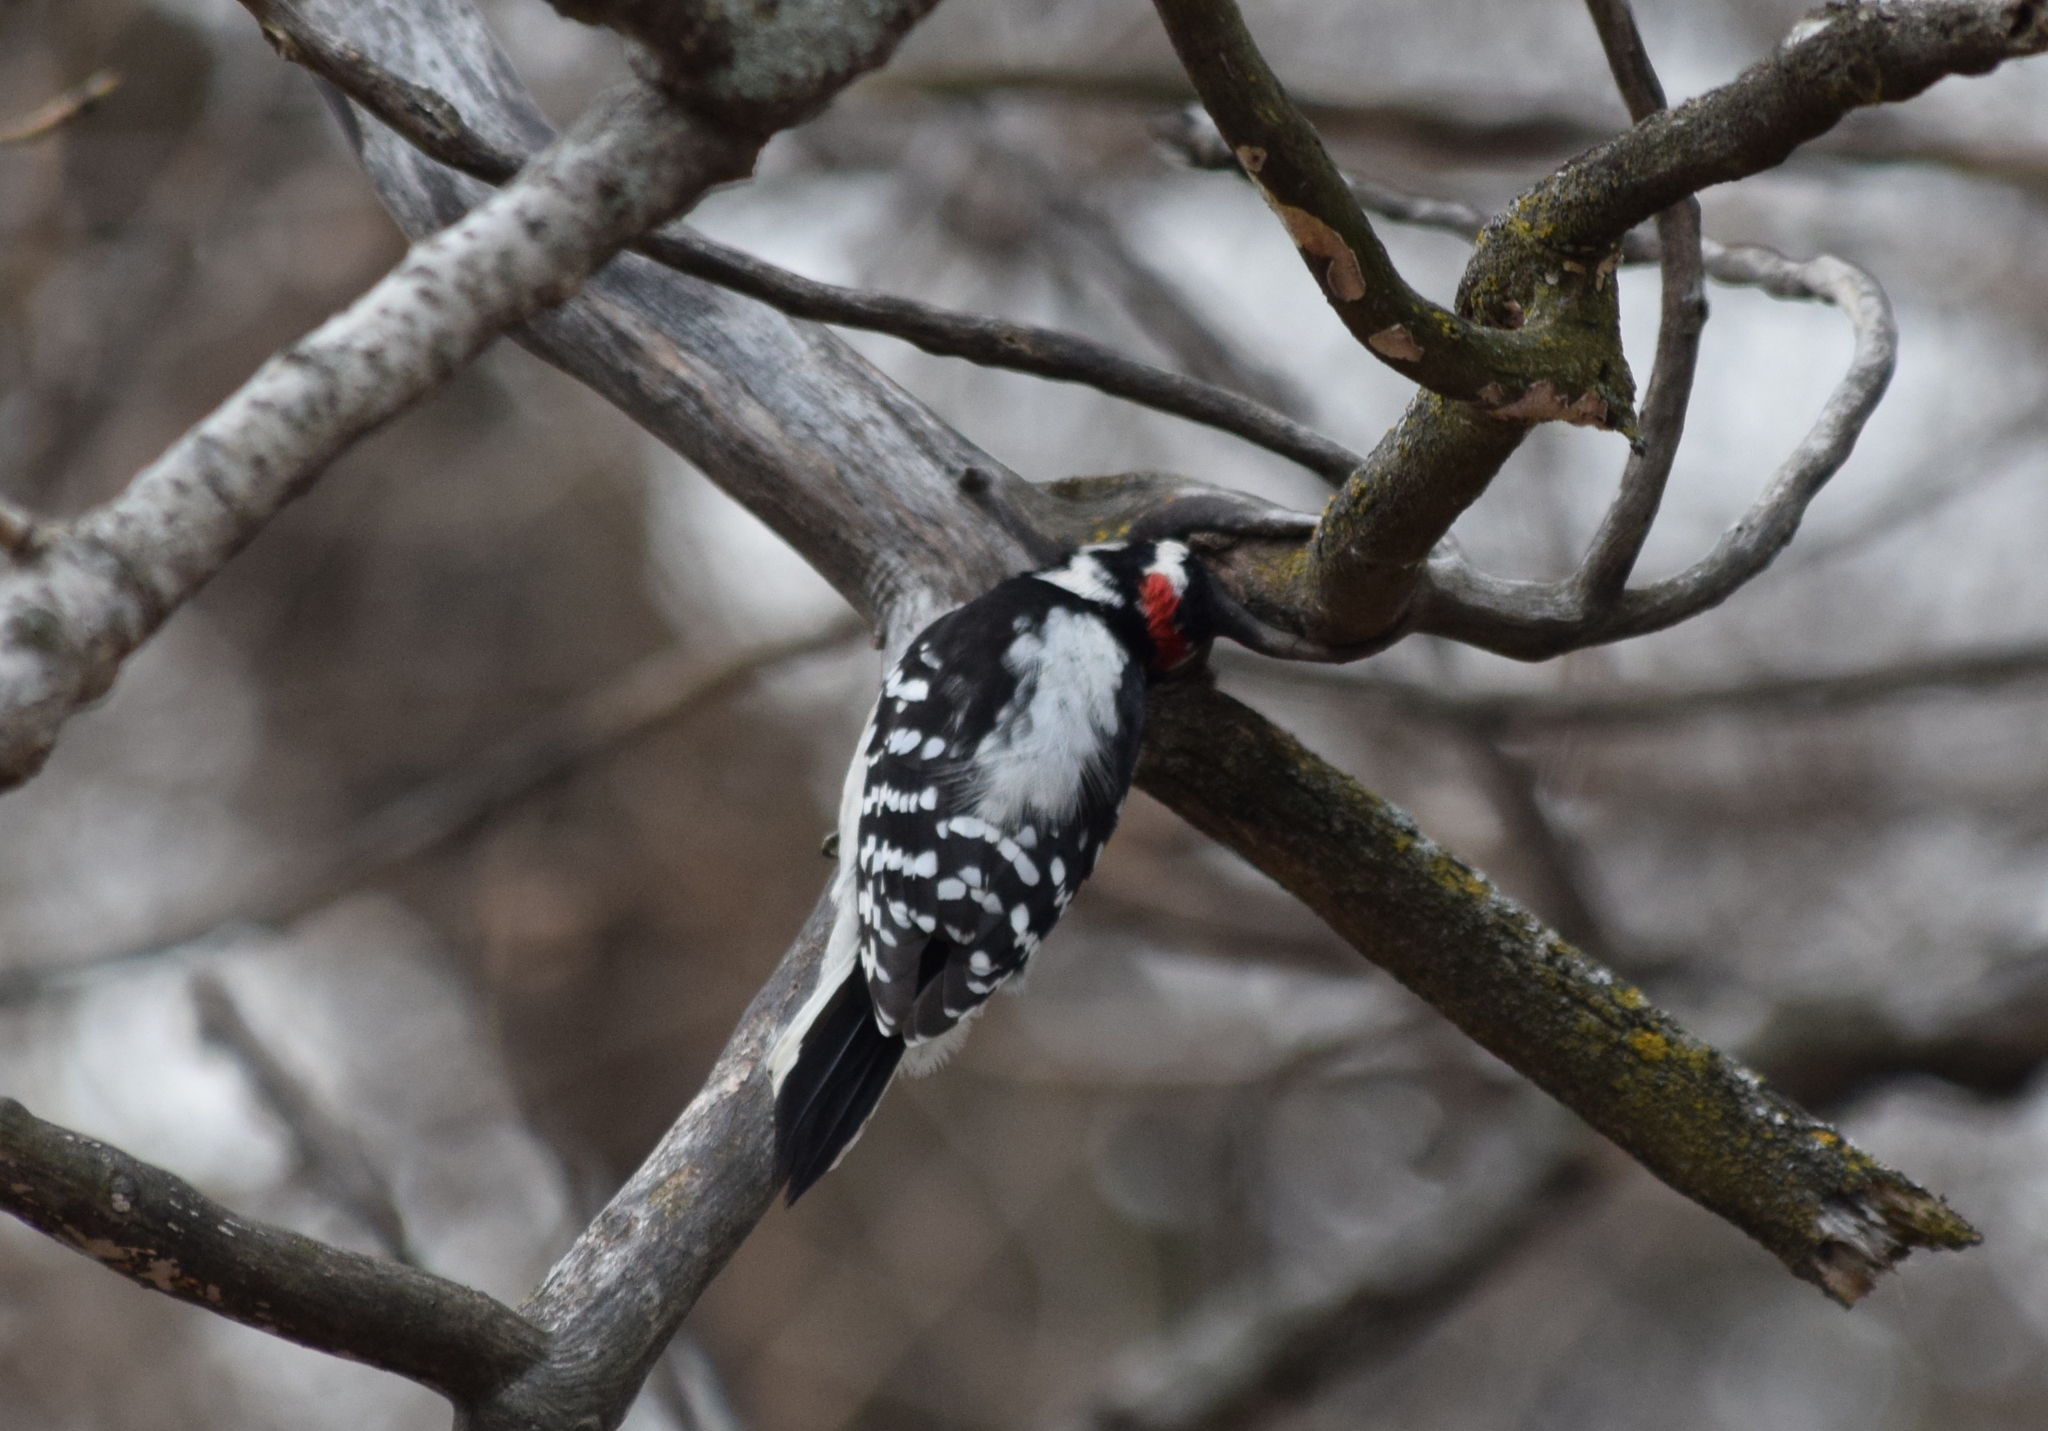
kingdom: Animalia
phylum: Chordata
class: Aves
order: Piciformes
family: Picidae
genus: Dryobates
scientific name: Dryobates pubescens
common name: Downy woodpecker
